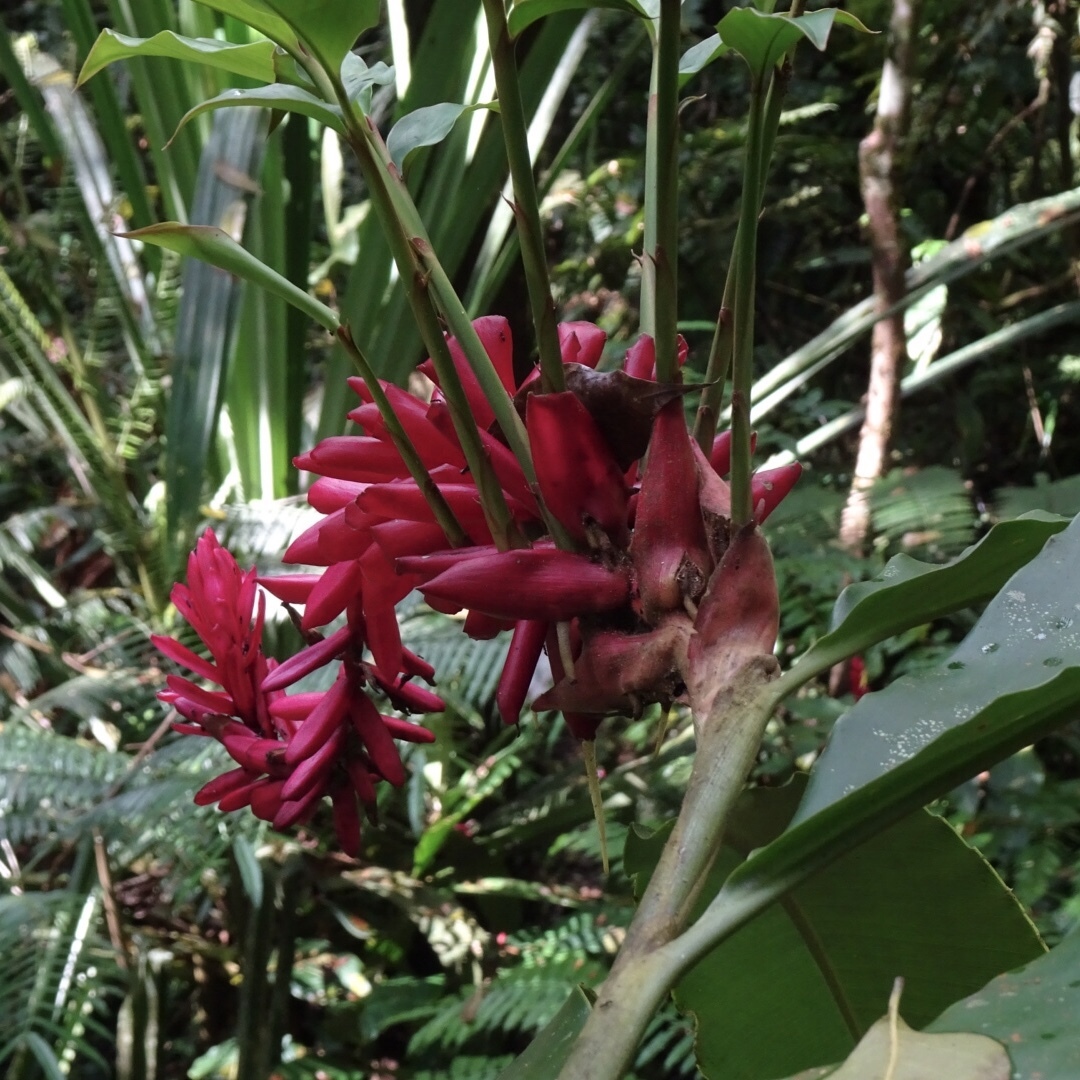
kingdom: Plantae
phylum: Tracheophyta
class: Liliopsida
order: Zingiberales
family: Zingiberaceae
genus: Alpinia
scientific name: Alpinia purpurata
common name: Red ginger
